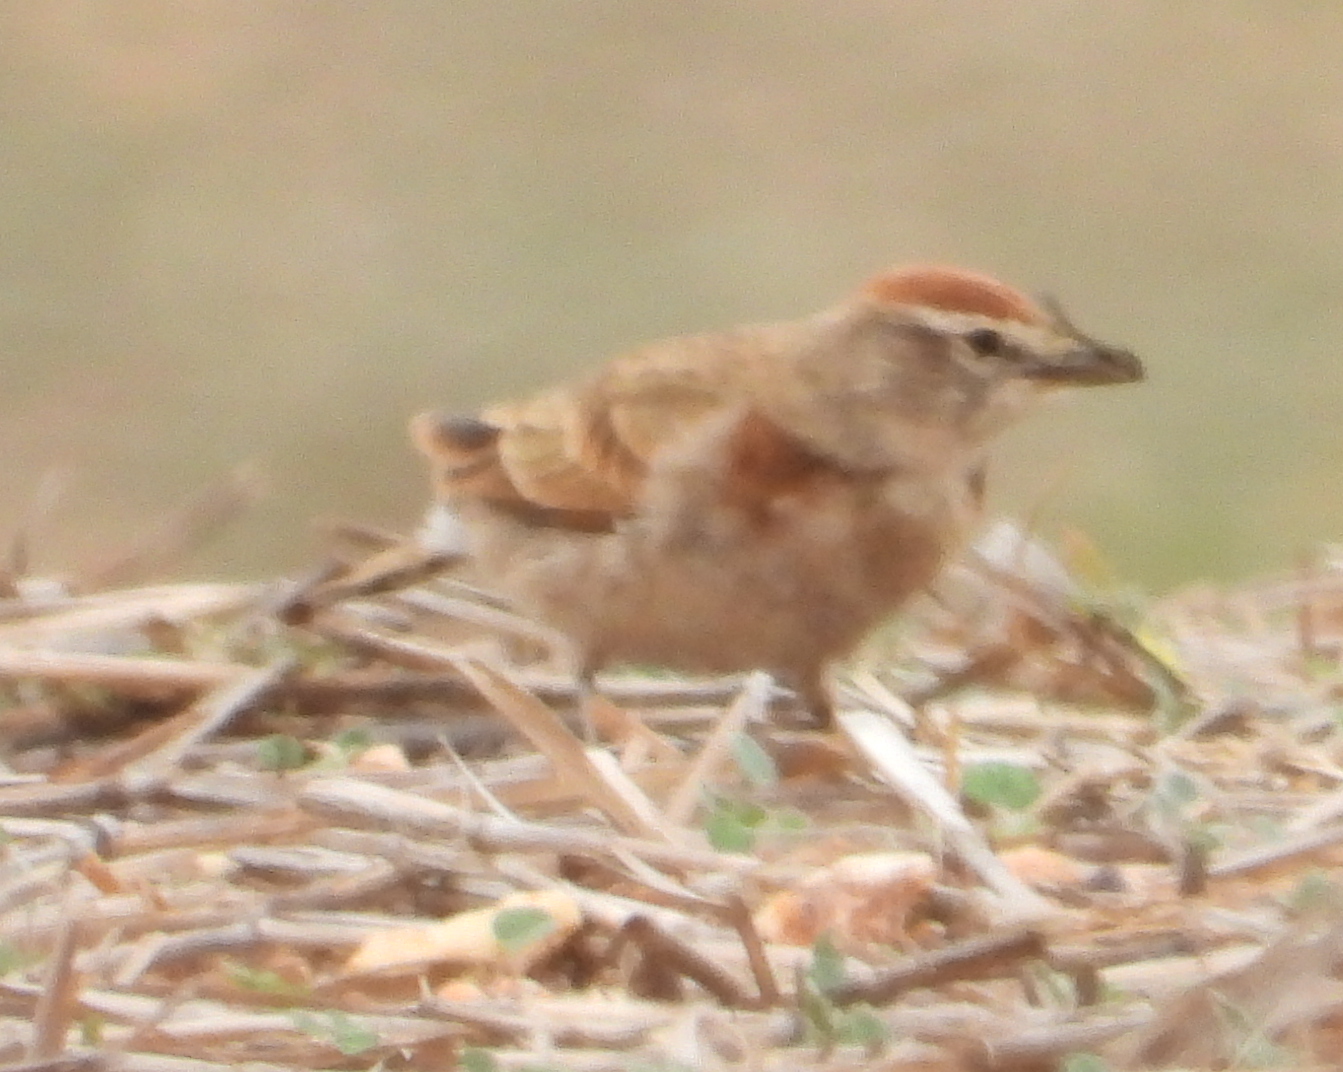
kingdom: Animalia
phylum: Chordata
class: Aves
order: Passeriformes
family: Alaudidae
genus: Calandrella
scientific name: Calandrella cinerea
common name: Red-capped lark
